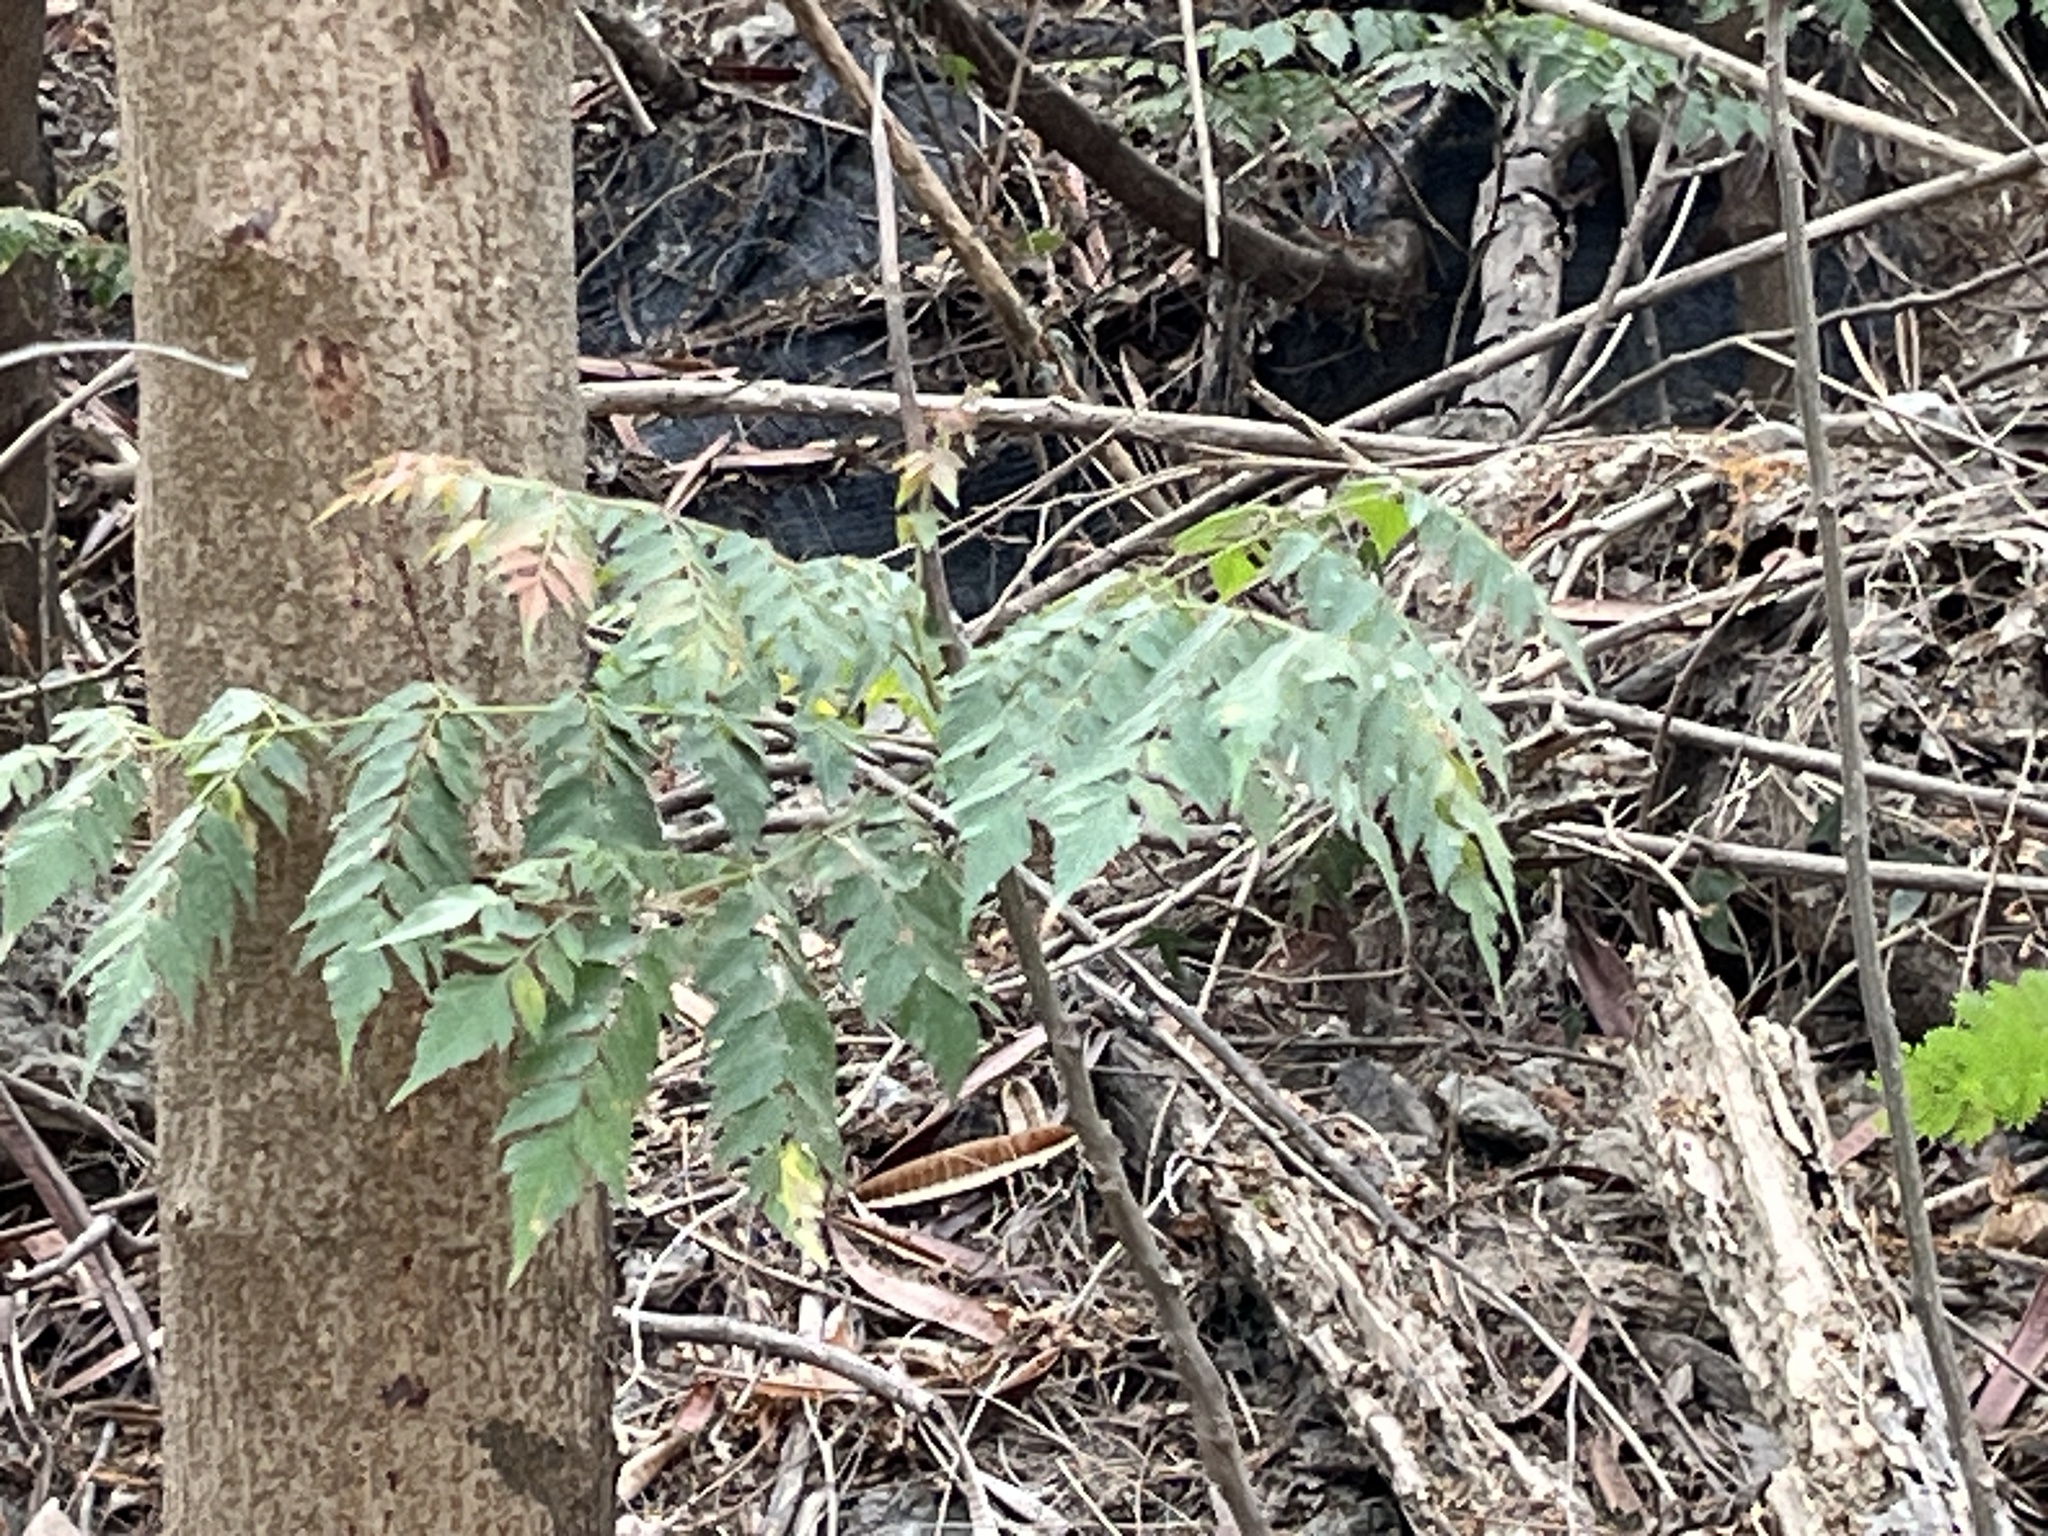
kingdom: Plantae
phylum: Tracheophyta
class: Magnoliopsida
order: Sapindales
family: Sapindaceae
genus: Koelreuteria
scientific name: Koelreuteria elegans
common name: Chinese flame tree
